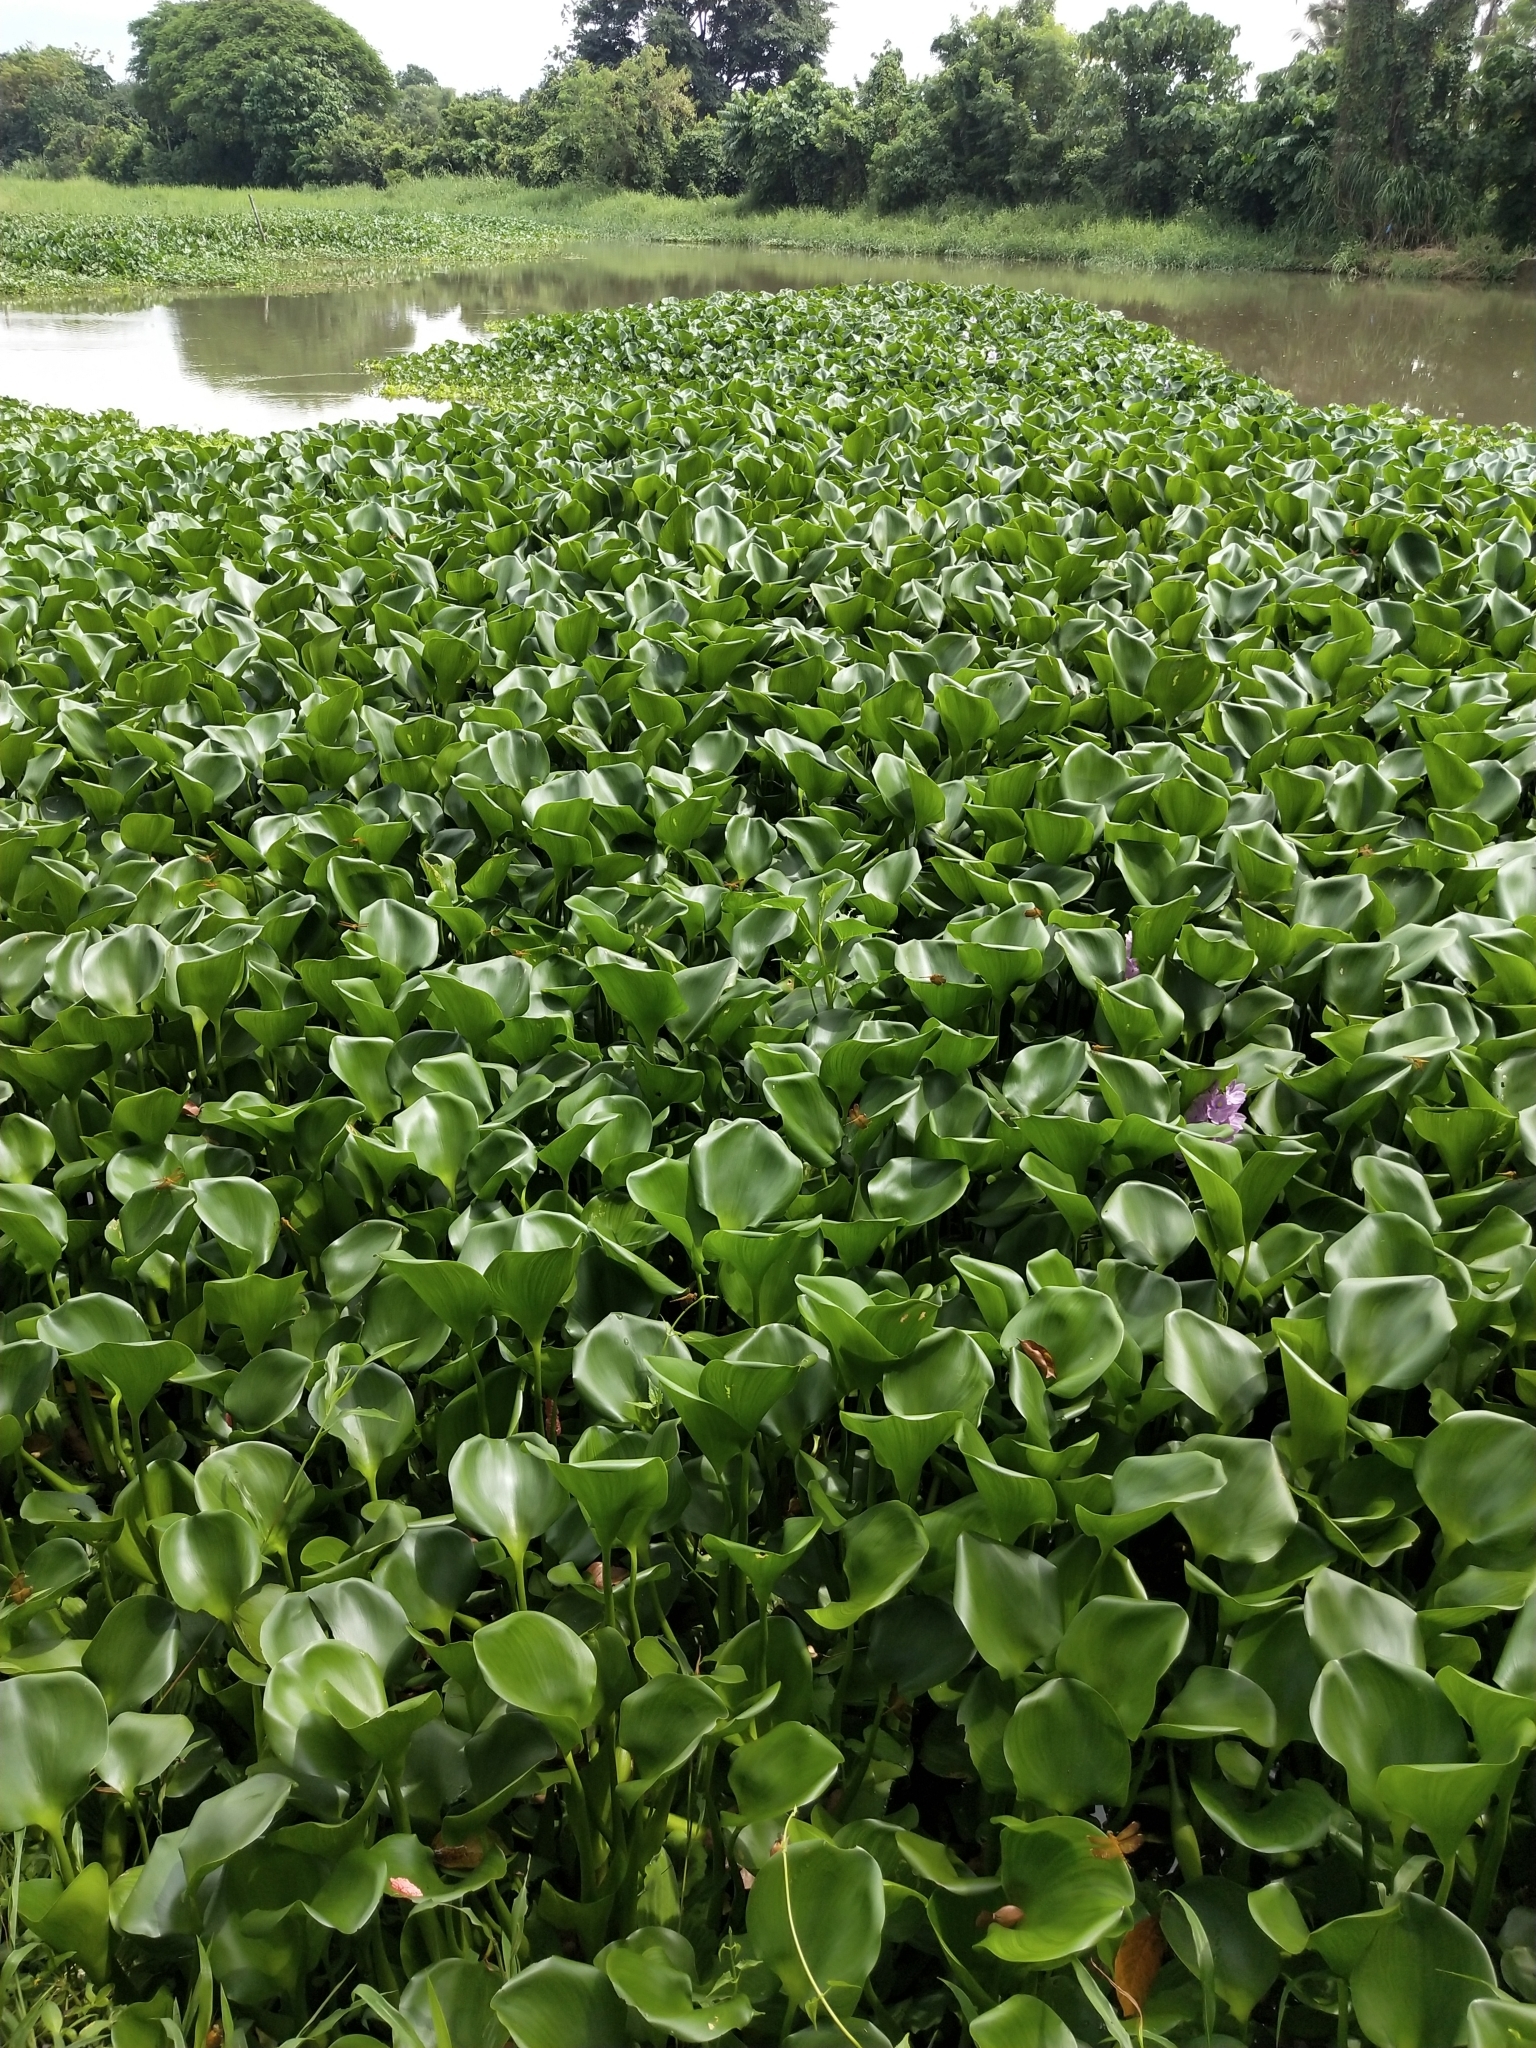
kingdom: Plantae
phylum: Tracheophyta
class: Liliopsida
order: Commelinales
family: Pontederiaceae
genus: Pontederia
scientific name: Pontederia crassipes
